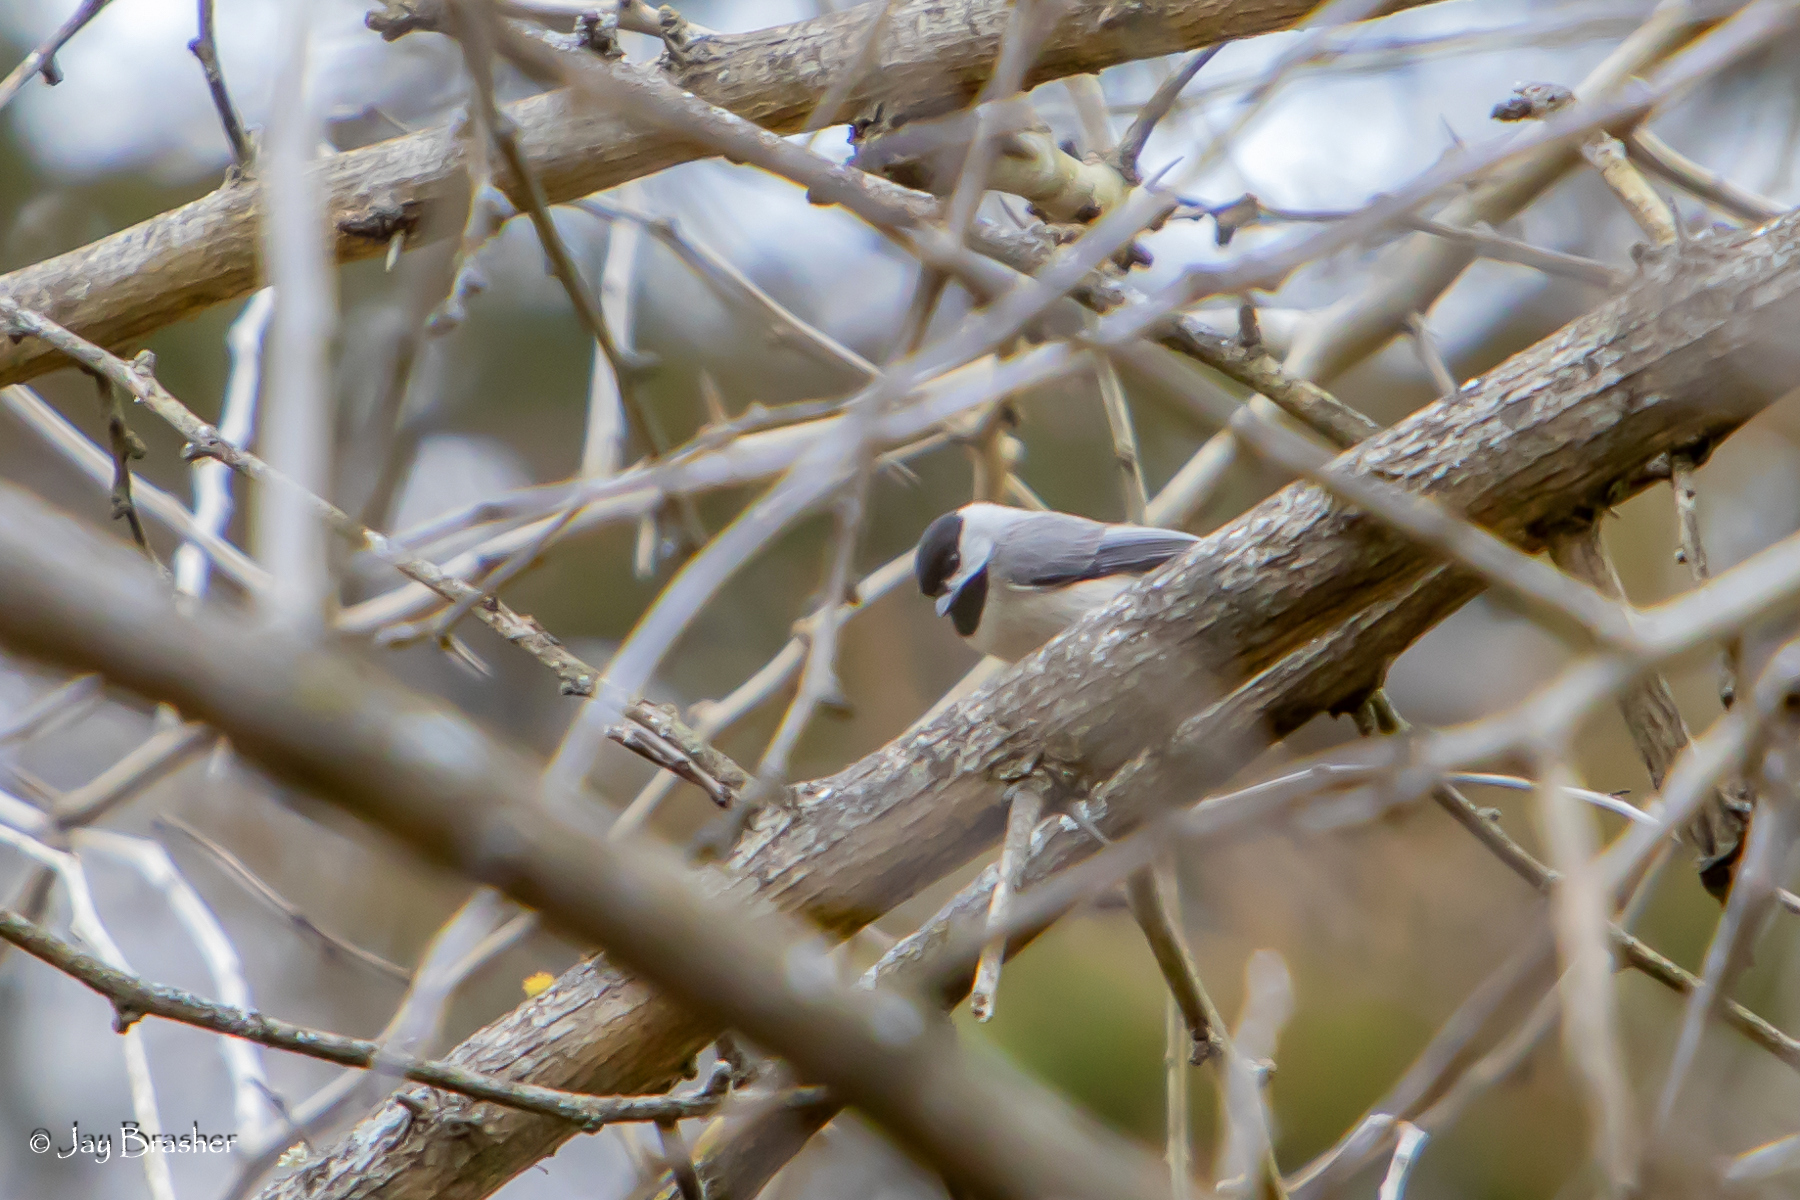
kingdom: Animalia
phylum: Chordata
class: Aves
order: Passeriformes
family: Paridae
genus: Poecile
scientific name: Poecile carolinensis
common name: Carolina chickadee
